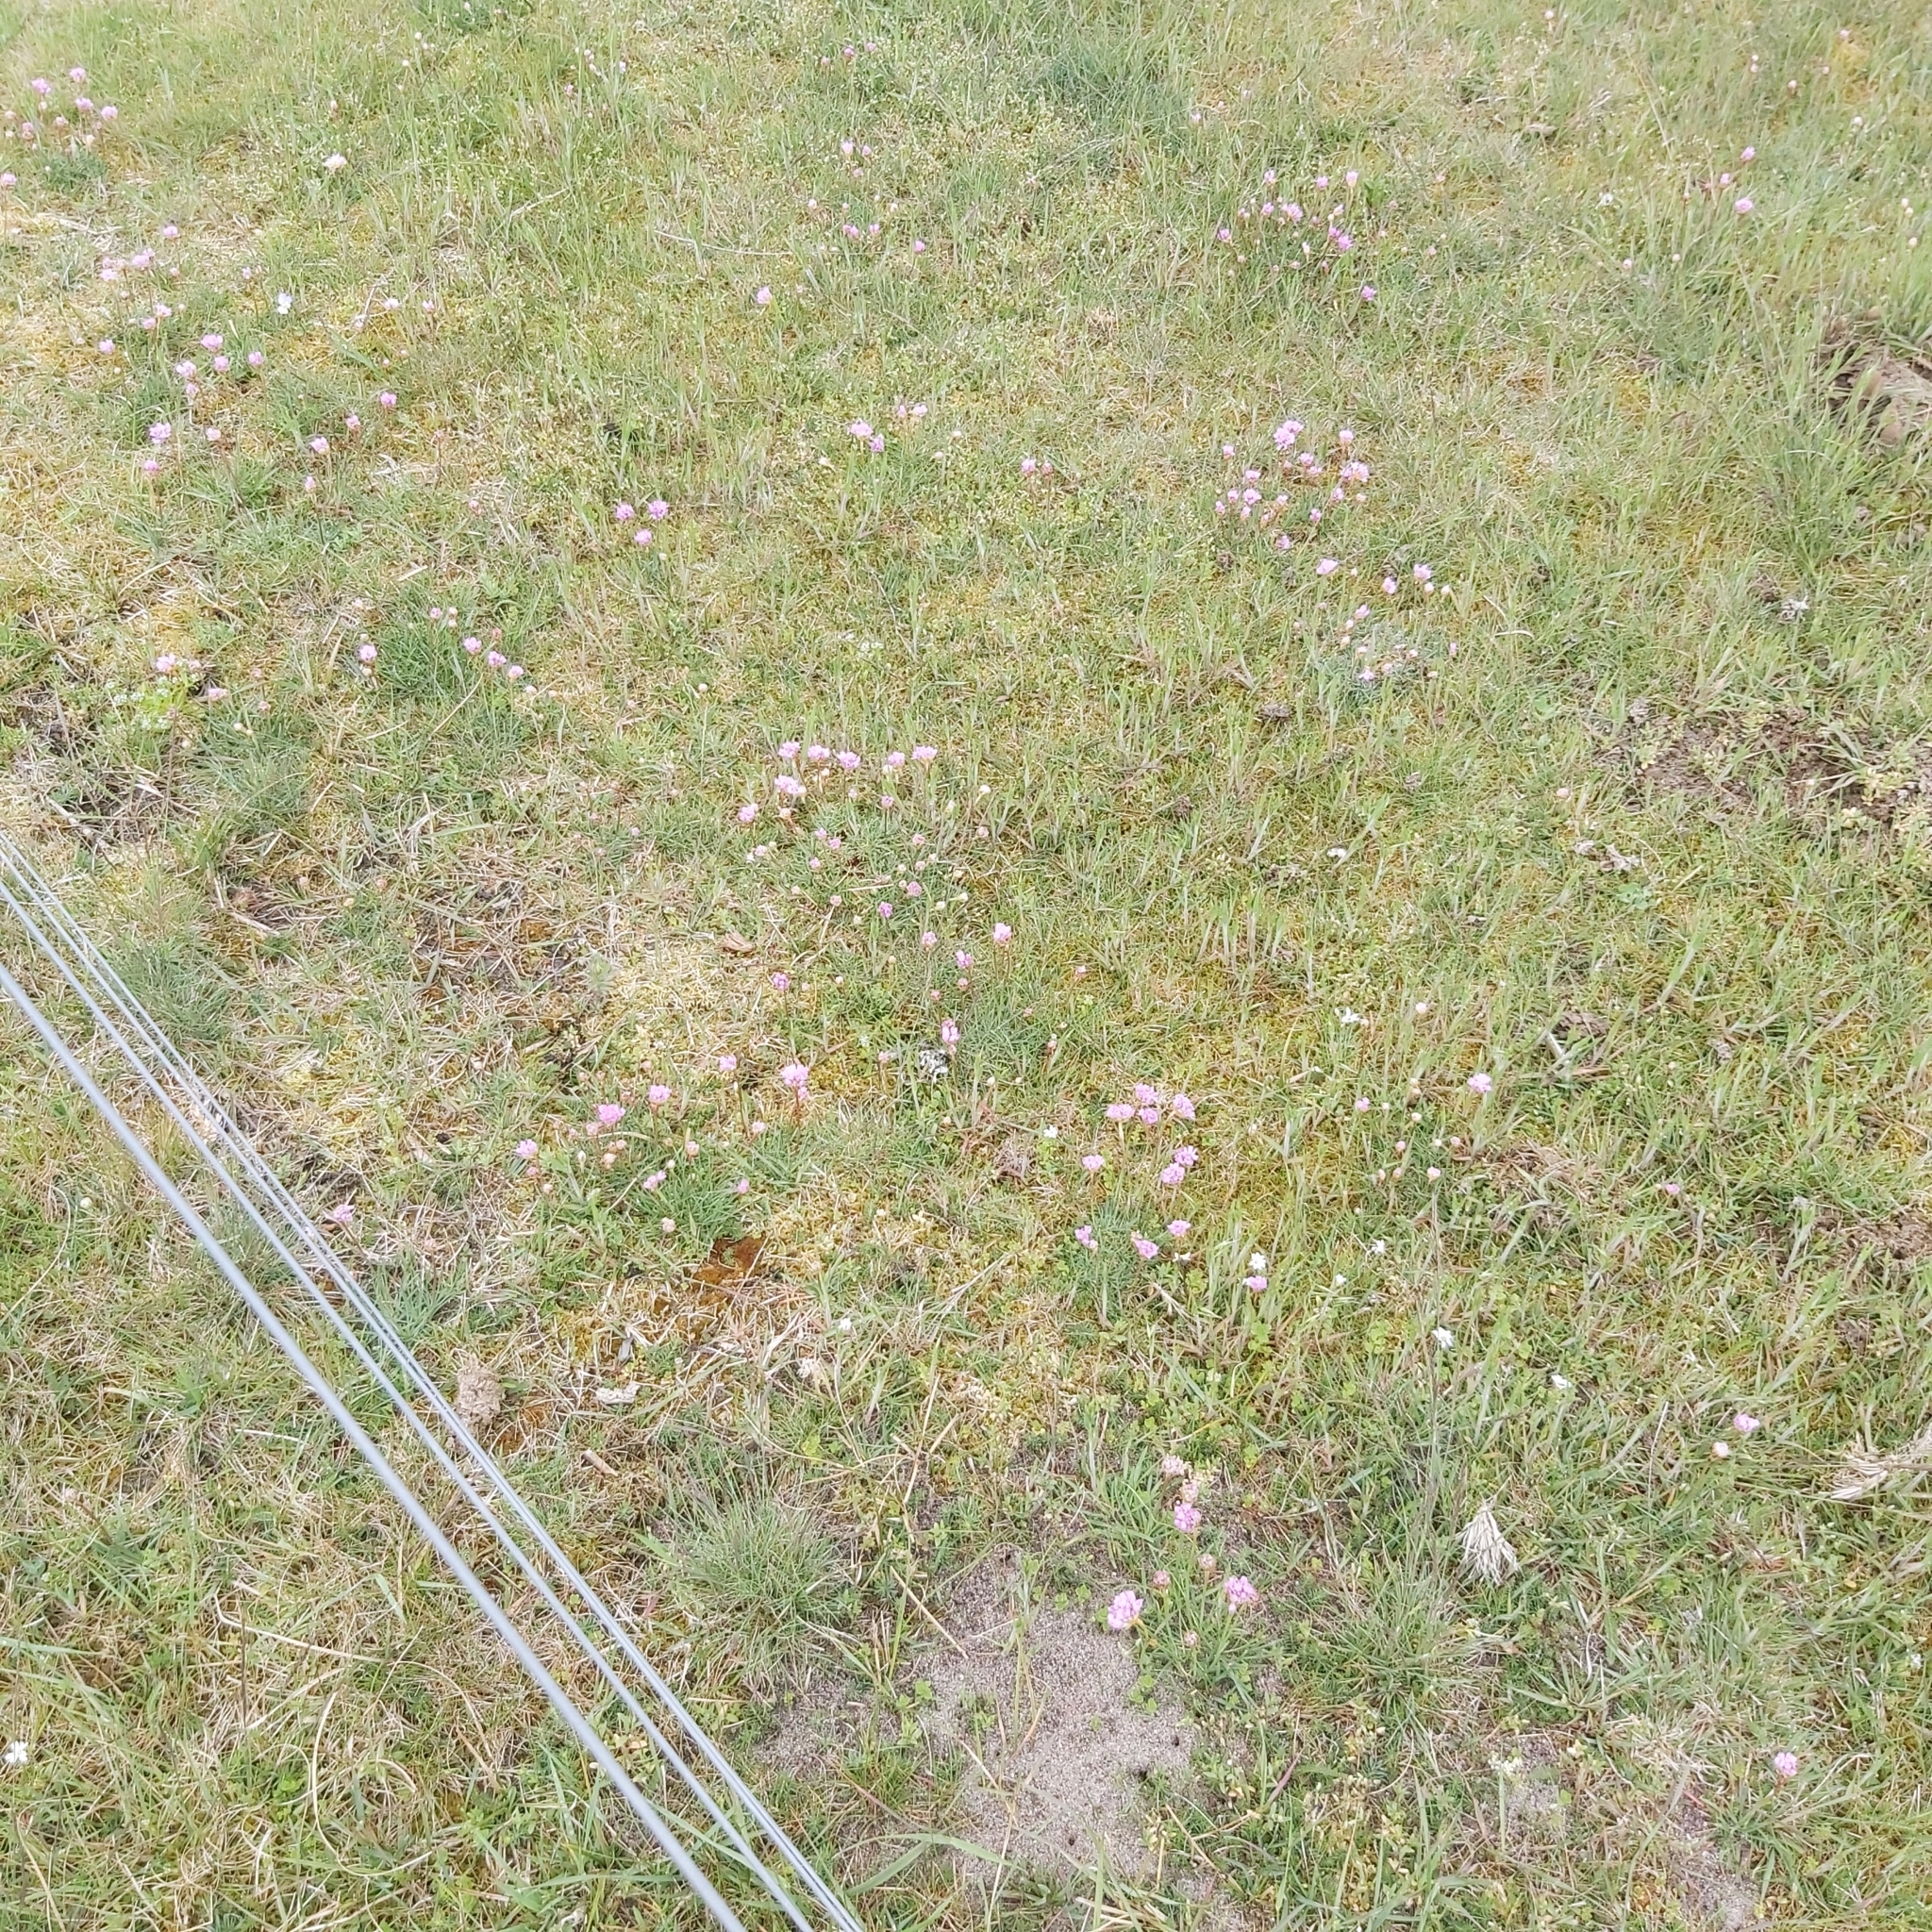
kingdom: Plantae
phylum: Tracheophyta
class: Magnoliopsida
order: Caryophyllales
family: Plumbaginaceae
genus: Armeria
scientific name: Armeria maritima
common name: Thrift
